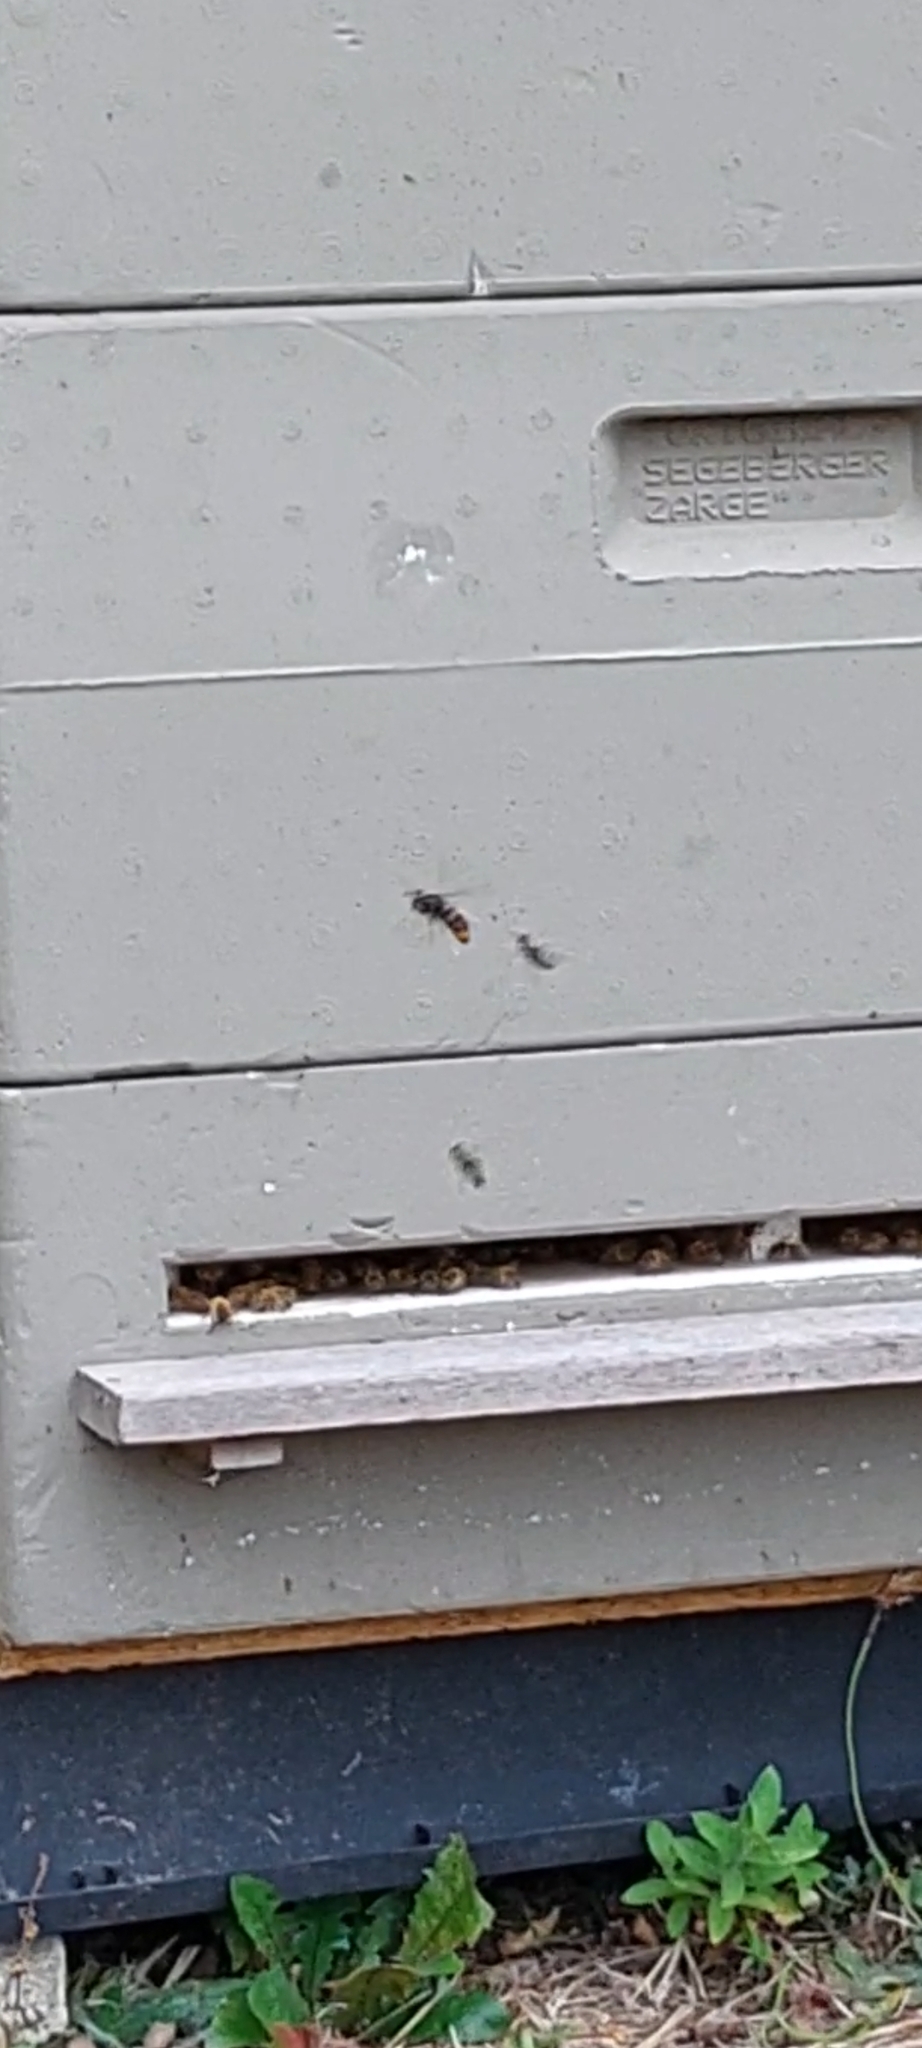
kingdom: Animalia
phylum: Arthropoda
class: Insecta
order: Hymenoptera
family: Vespidae
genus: Vespa
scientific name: Vespa velutina
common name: Asian hornet
